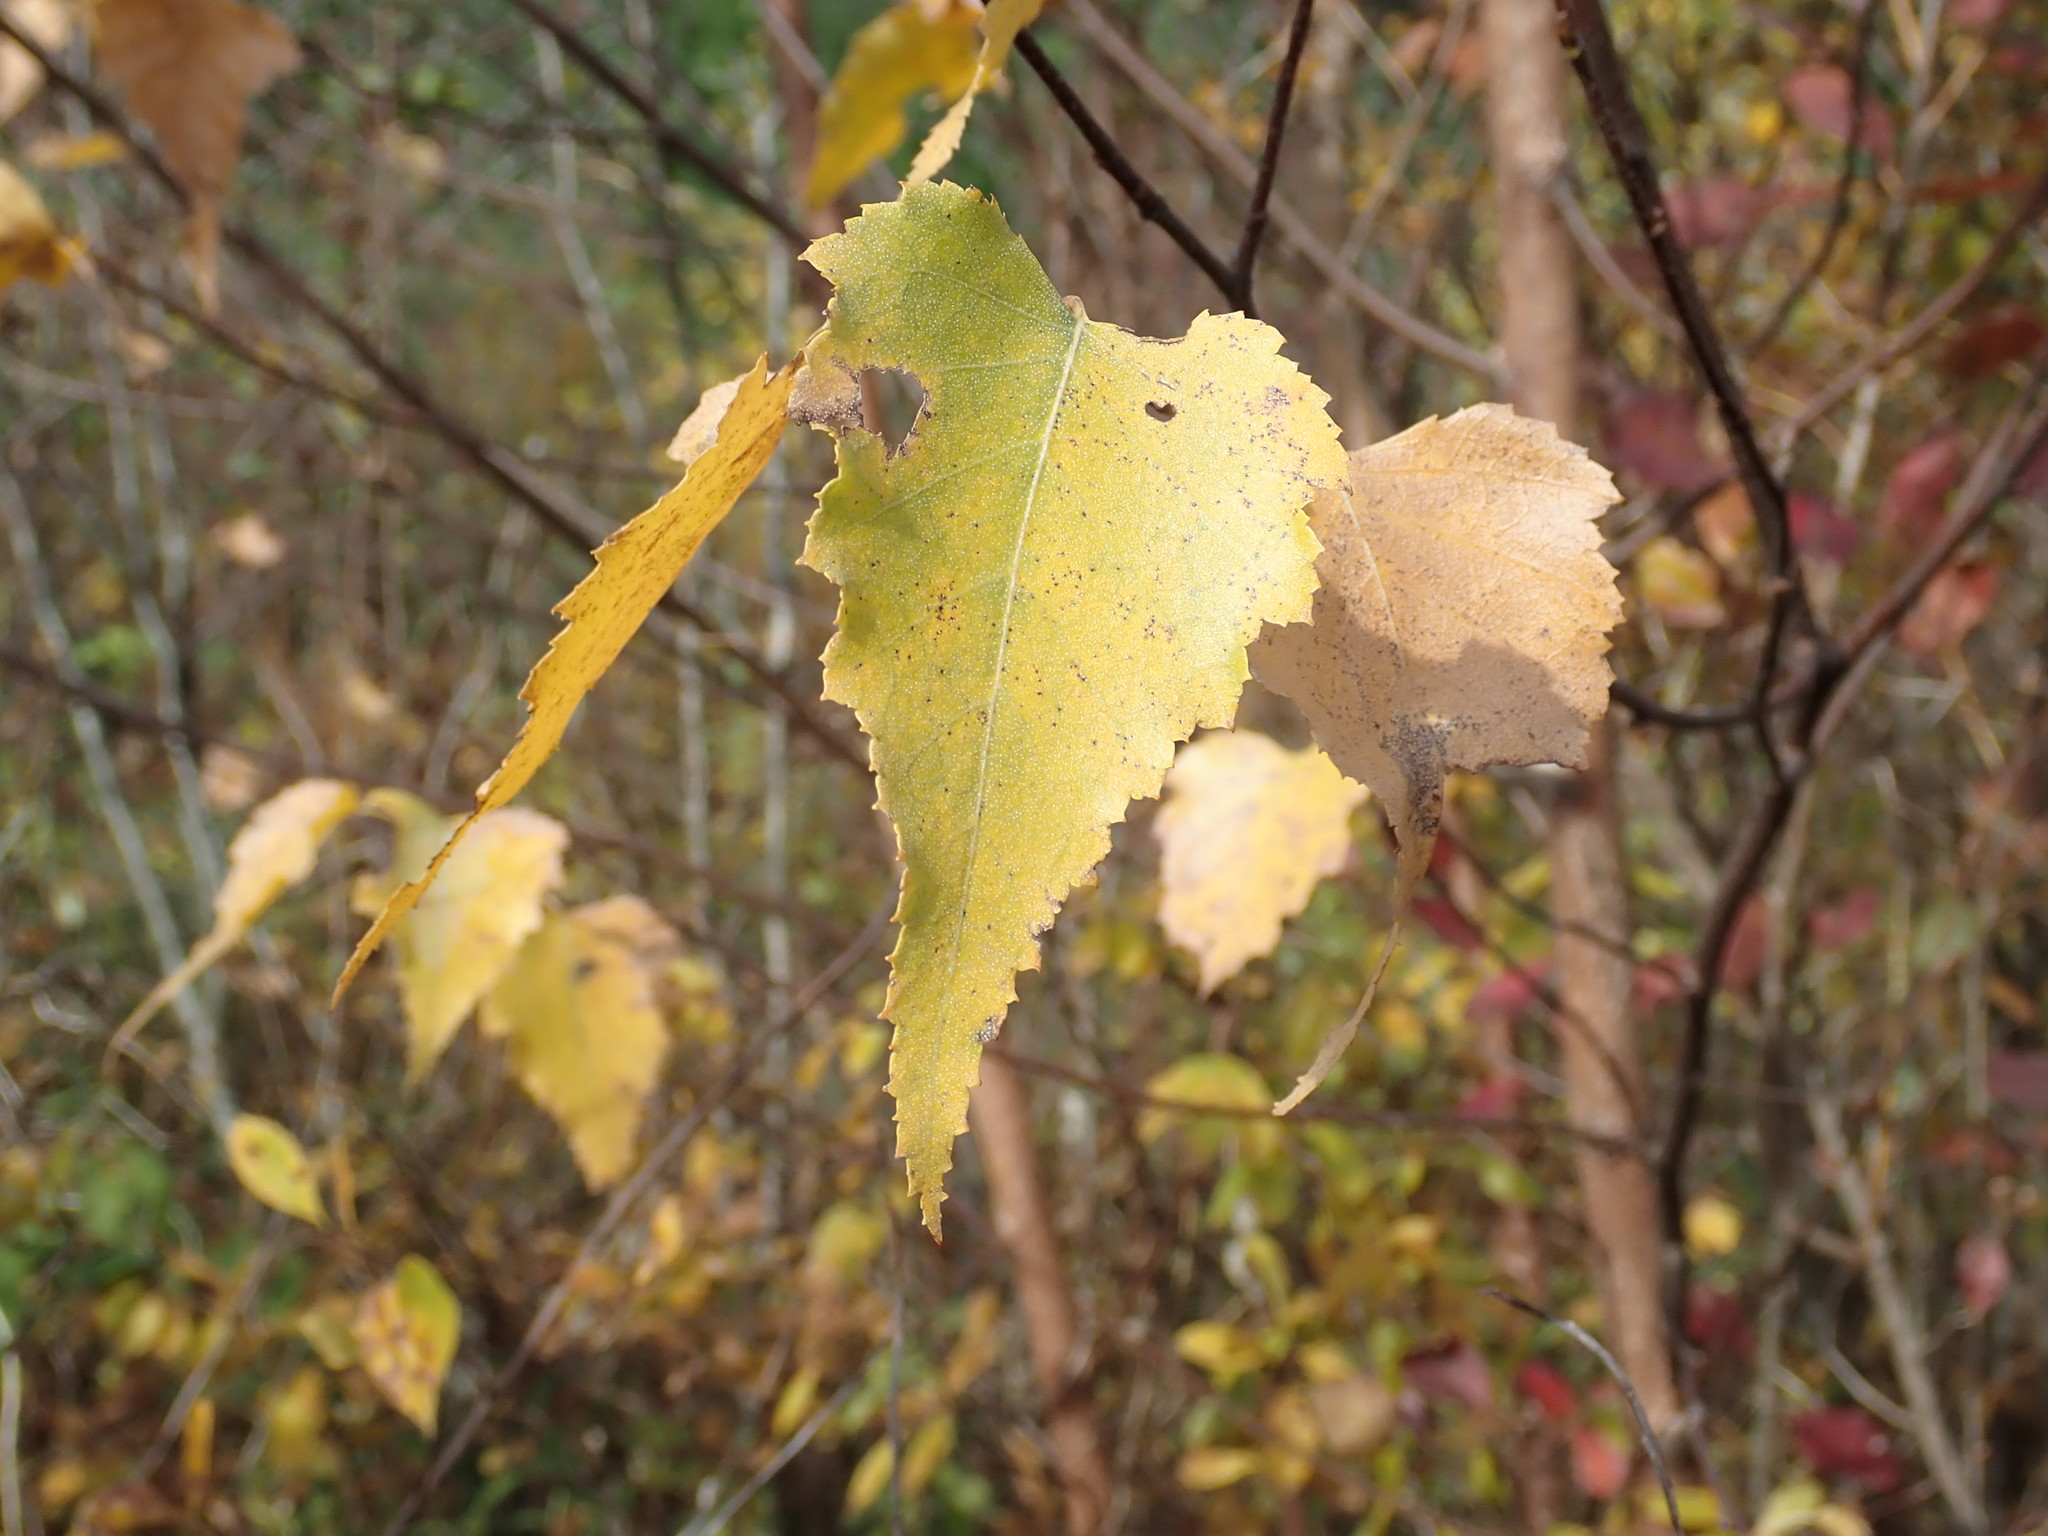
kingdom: Plantae
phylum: Tracheophyta
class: Magnoliopsida
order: Fagales
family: Betulaceae
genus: Betula
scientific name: Betula populifolia
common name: Fire birch
